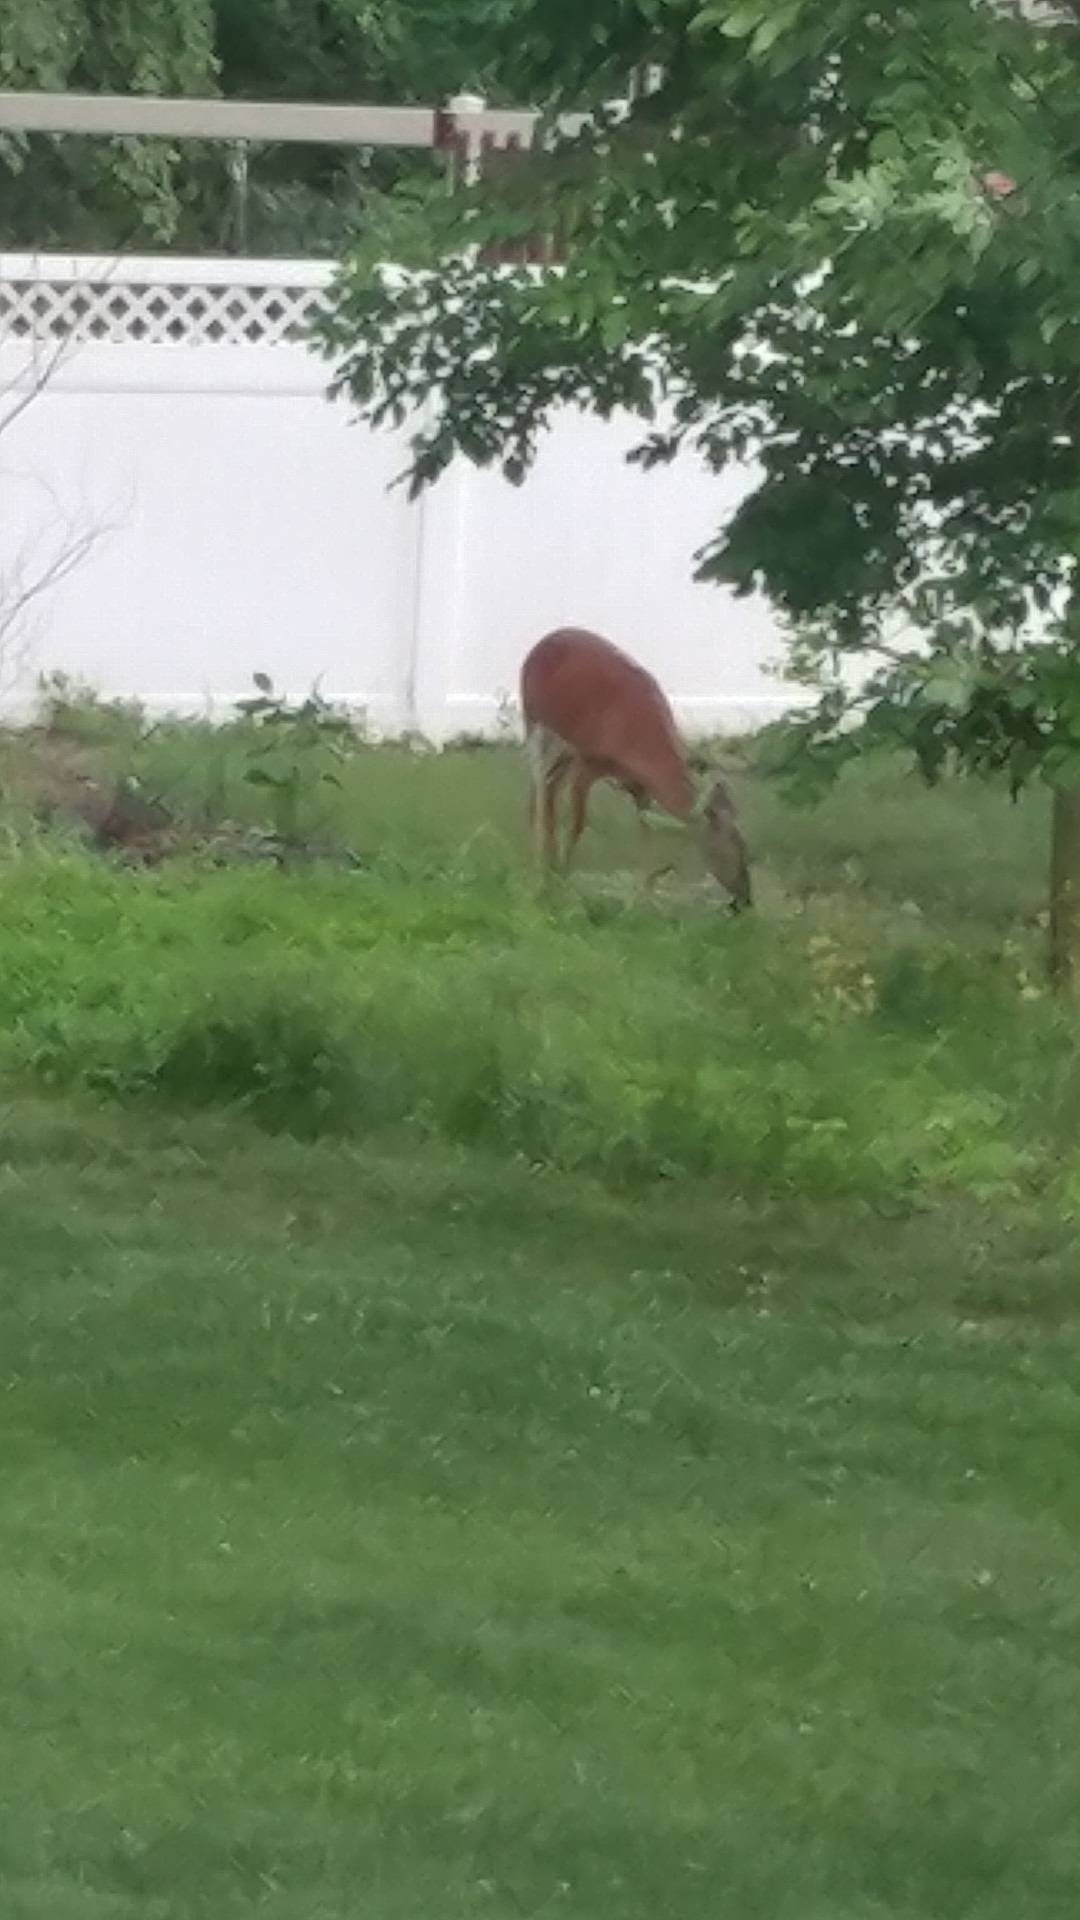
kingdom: Animalia
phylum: Chordata
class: Mammalia
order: Artiodactyla
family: Cervidae
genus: Odocoileus
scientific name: Odocoileus virginianus
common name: White-tailed deer
